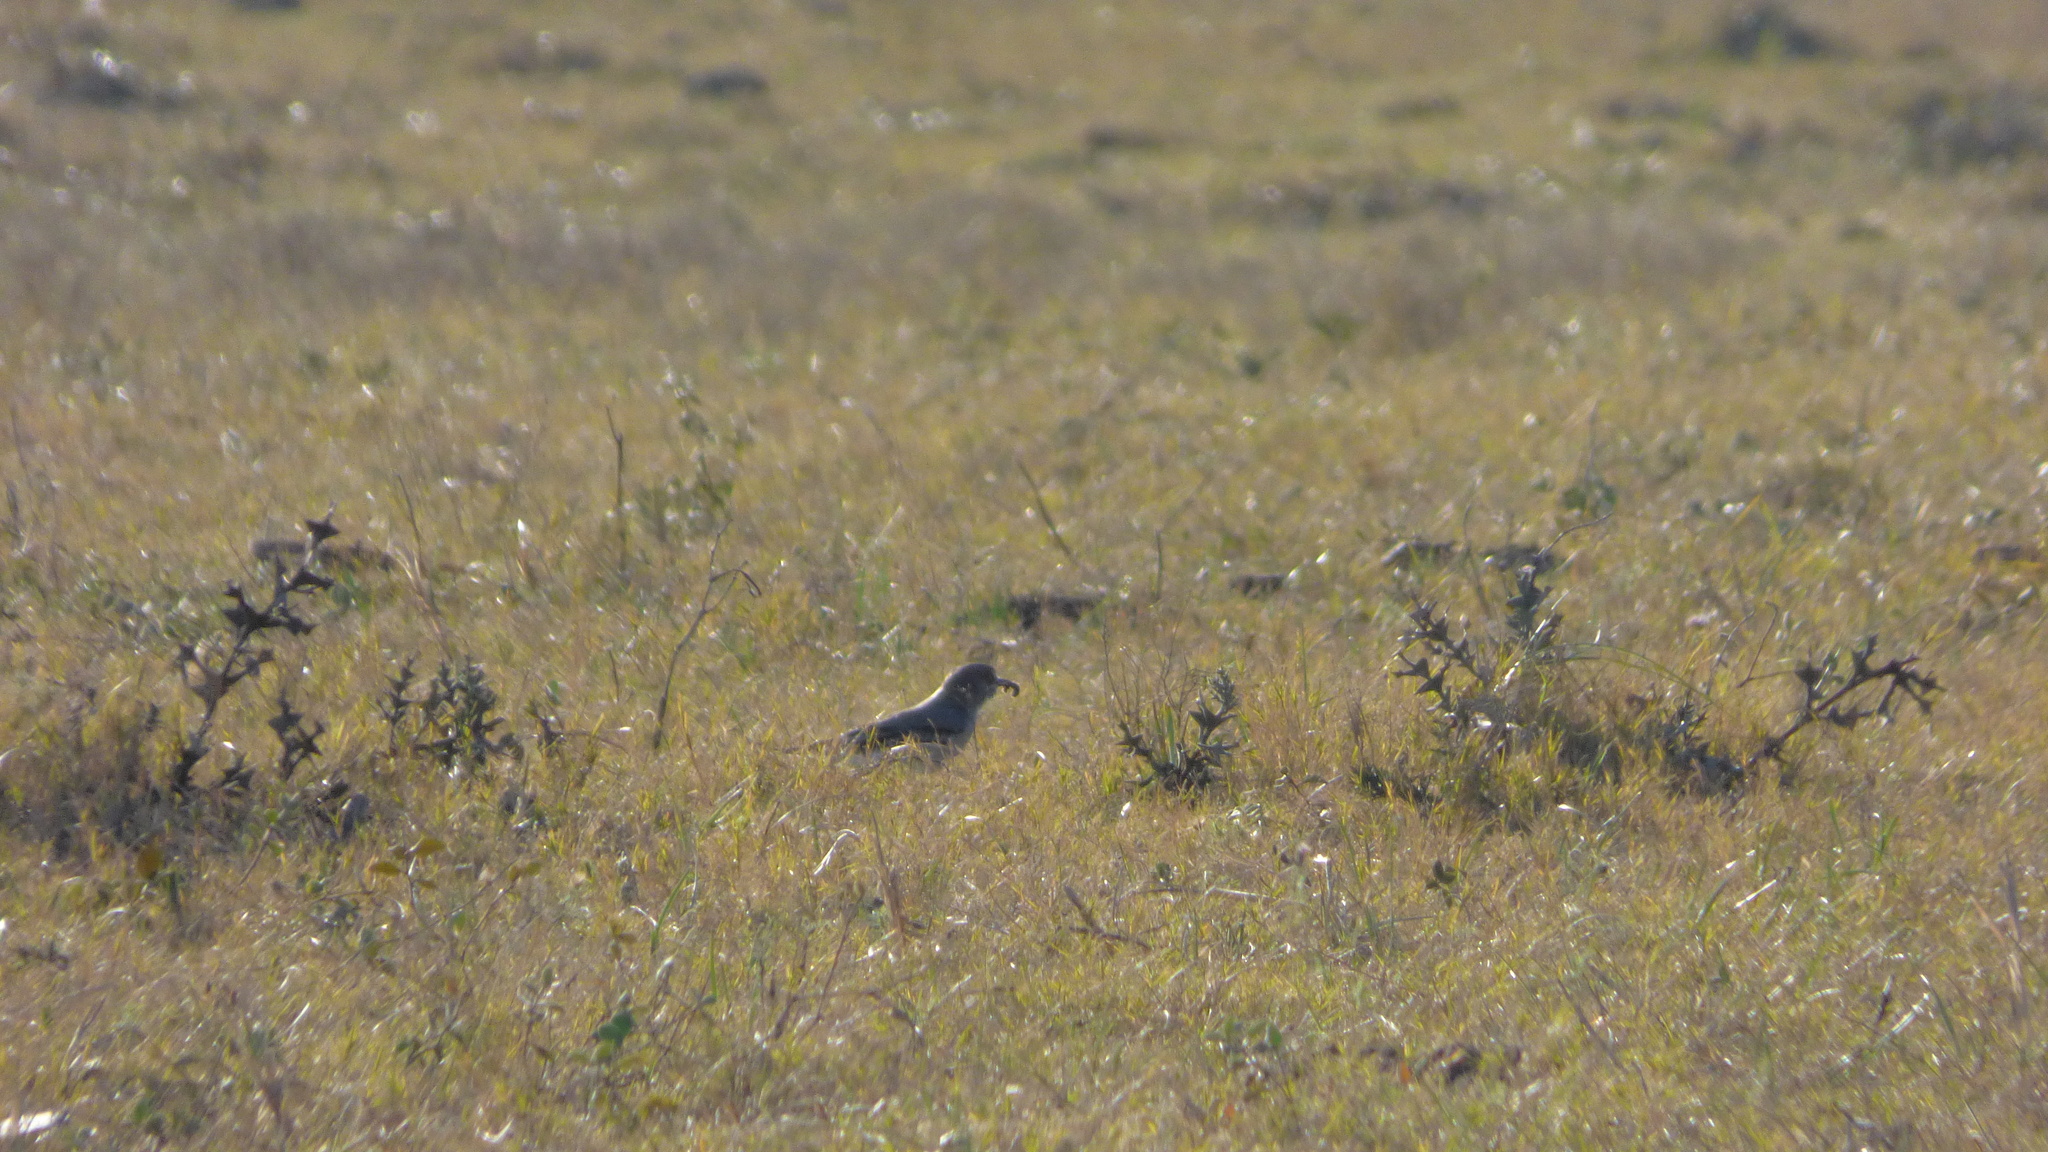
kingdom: Animalia
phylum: Chordata
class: Aves
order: Passeriformes
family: Tyrannidae
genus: Xolmis
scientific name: Xolmis cinereus
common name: Grey monjita
